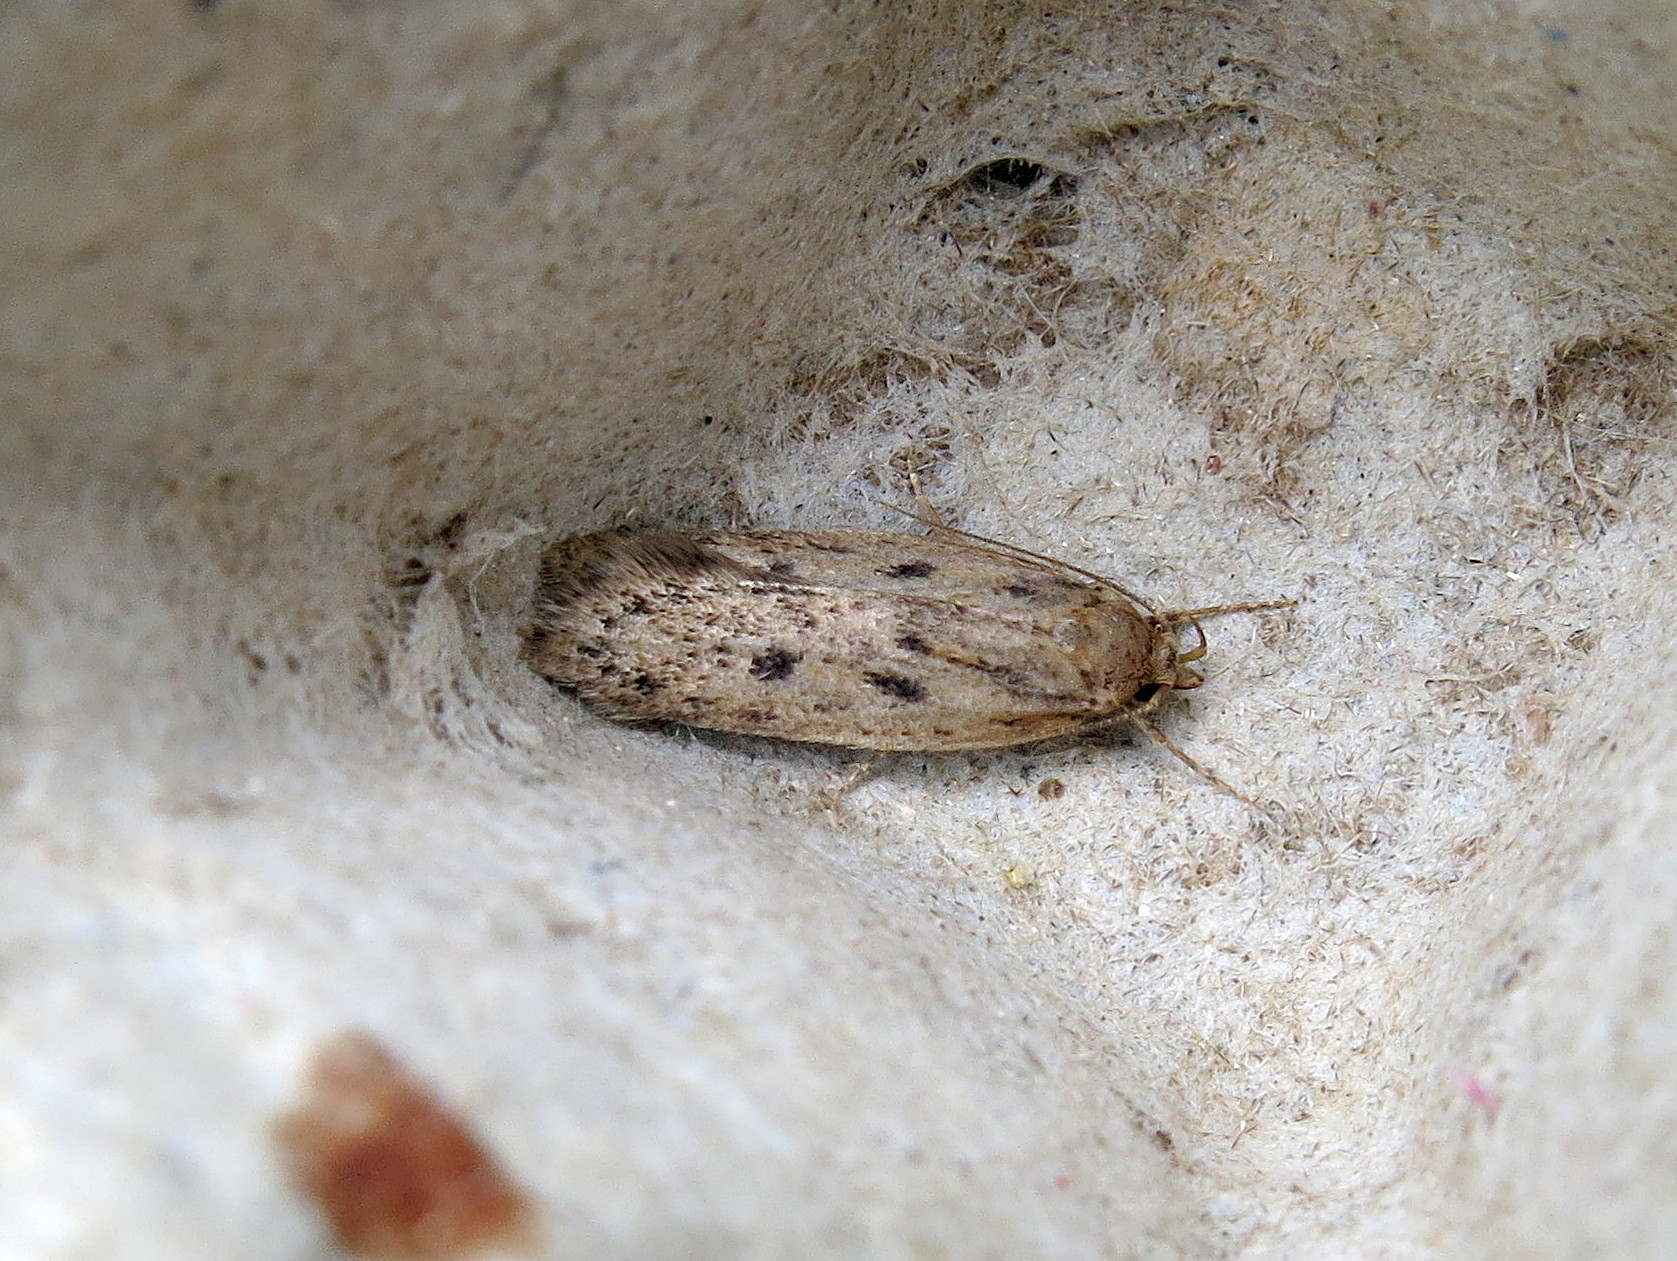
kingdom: Animalia
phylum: Arthropoda
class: Insecta
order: Lepidoptera
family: Oecophoridae
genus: Hofmannophila
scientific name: Hofmannophila pseudospretella
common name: Brown house moth
